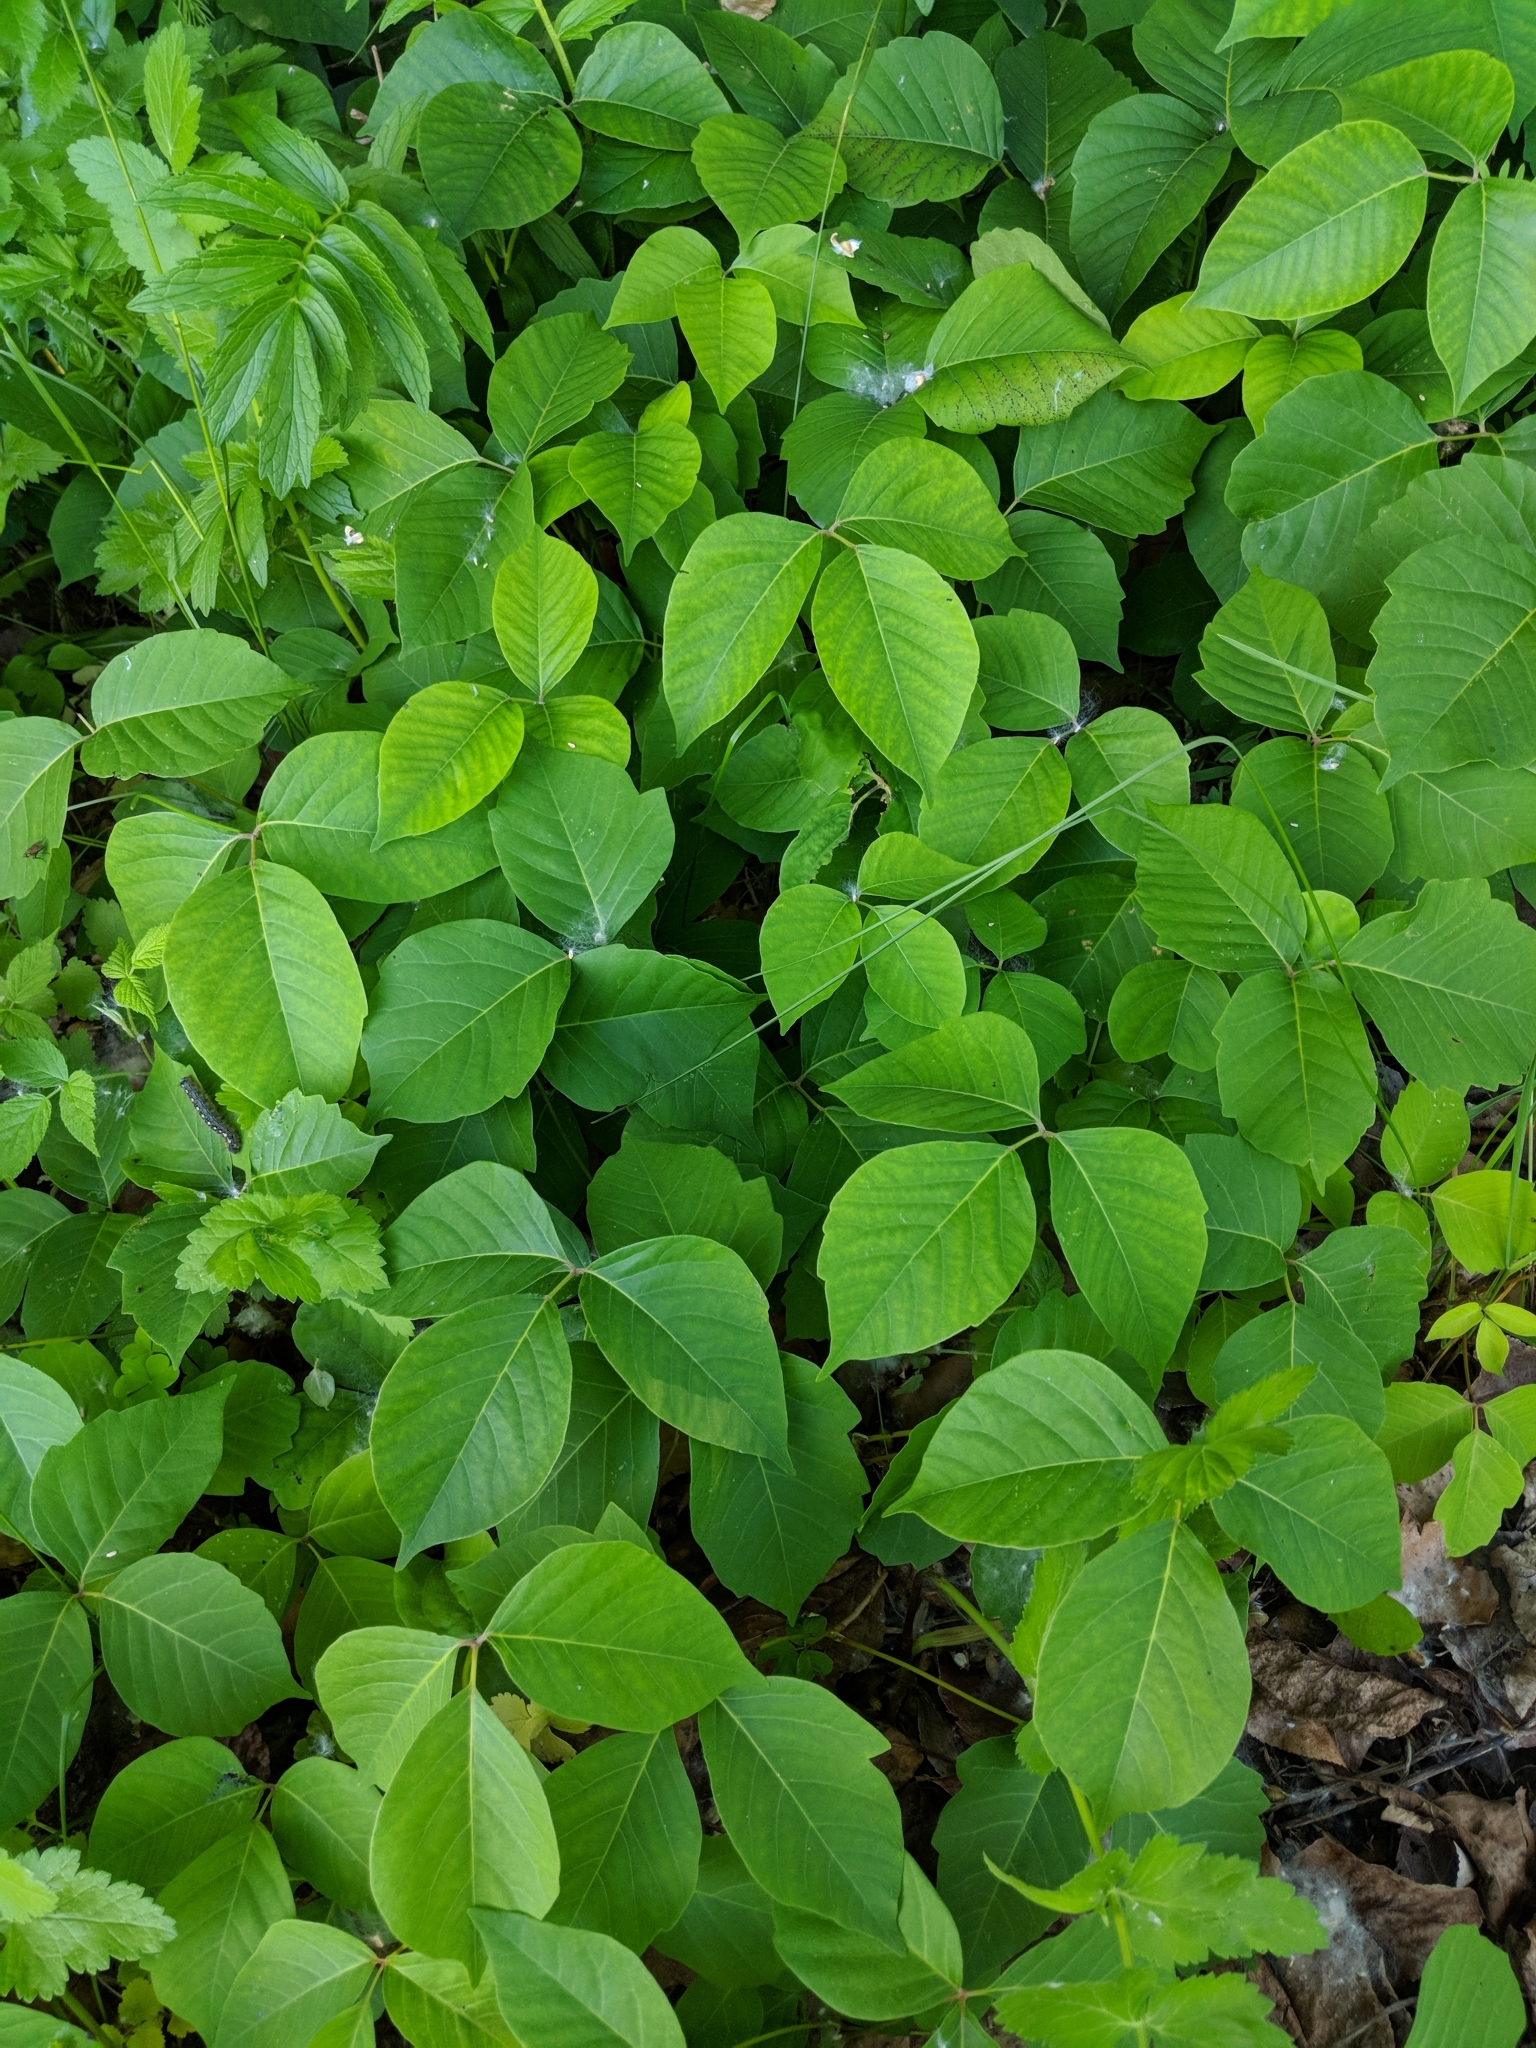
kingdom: Plantae
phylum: Tracheophyta
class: Magnoliopsida
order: Sapindales
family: Anacardiaceae
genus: Toxicodendron
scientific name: Toxicodendron radicans
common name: Poison ivy
